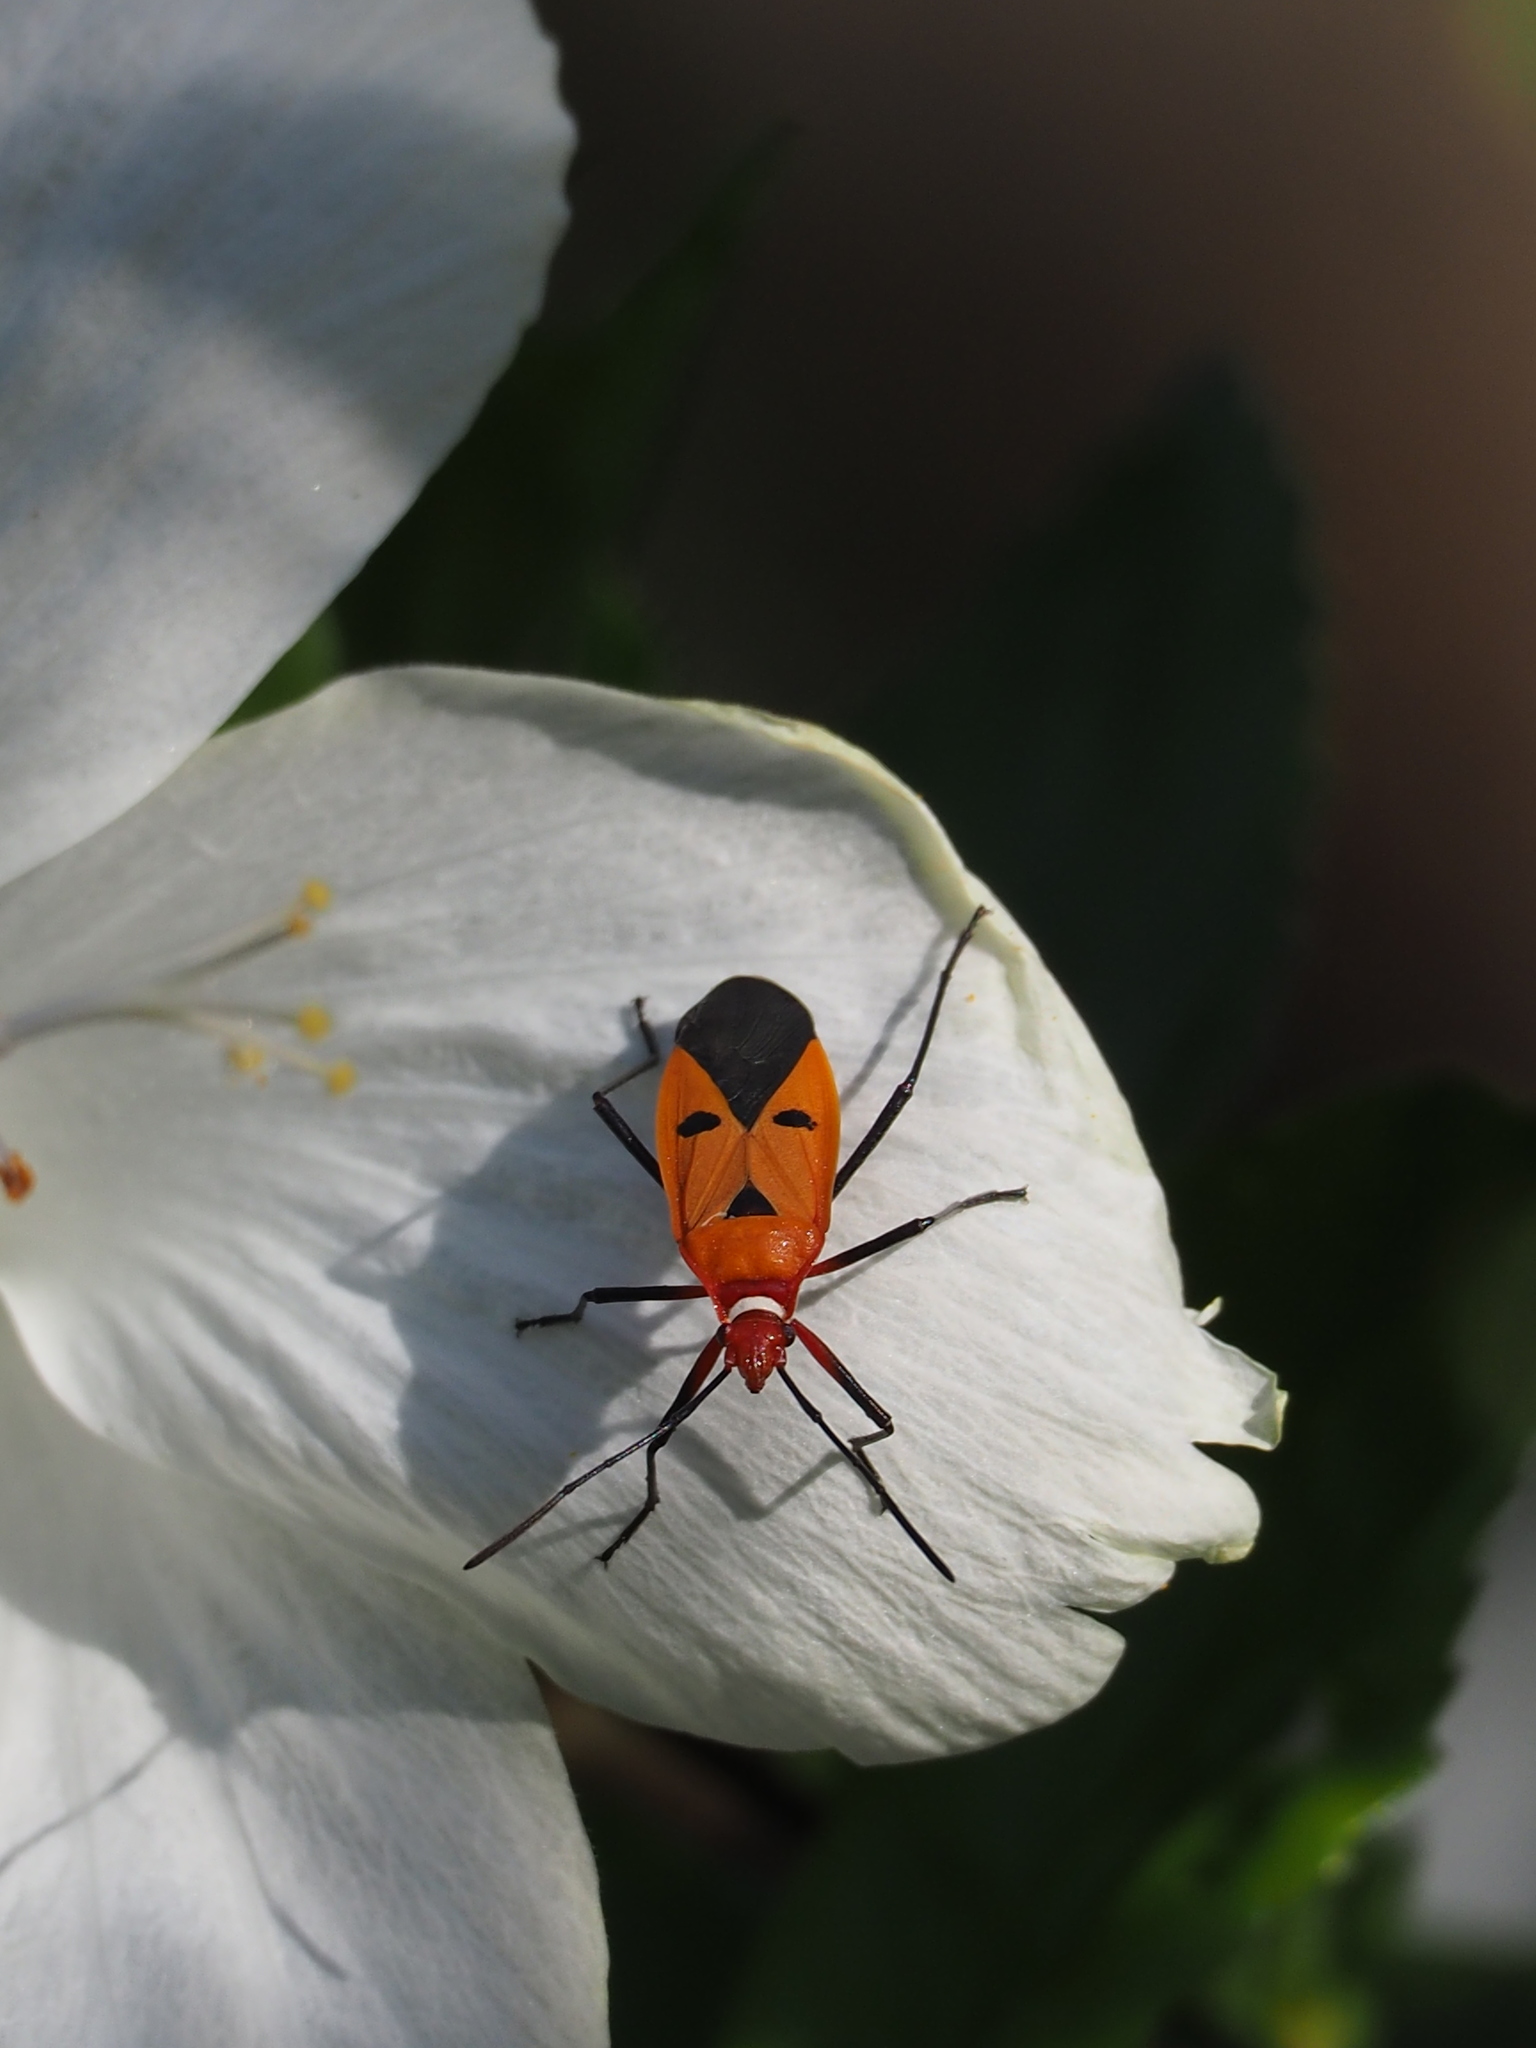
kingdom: Animalia
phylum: Arthropoda
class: Insecta
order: Hemiptera
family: Pyrrhocoridae
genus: Dysdercus
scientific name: Dysdercus cingulatus
